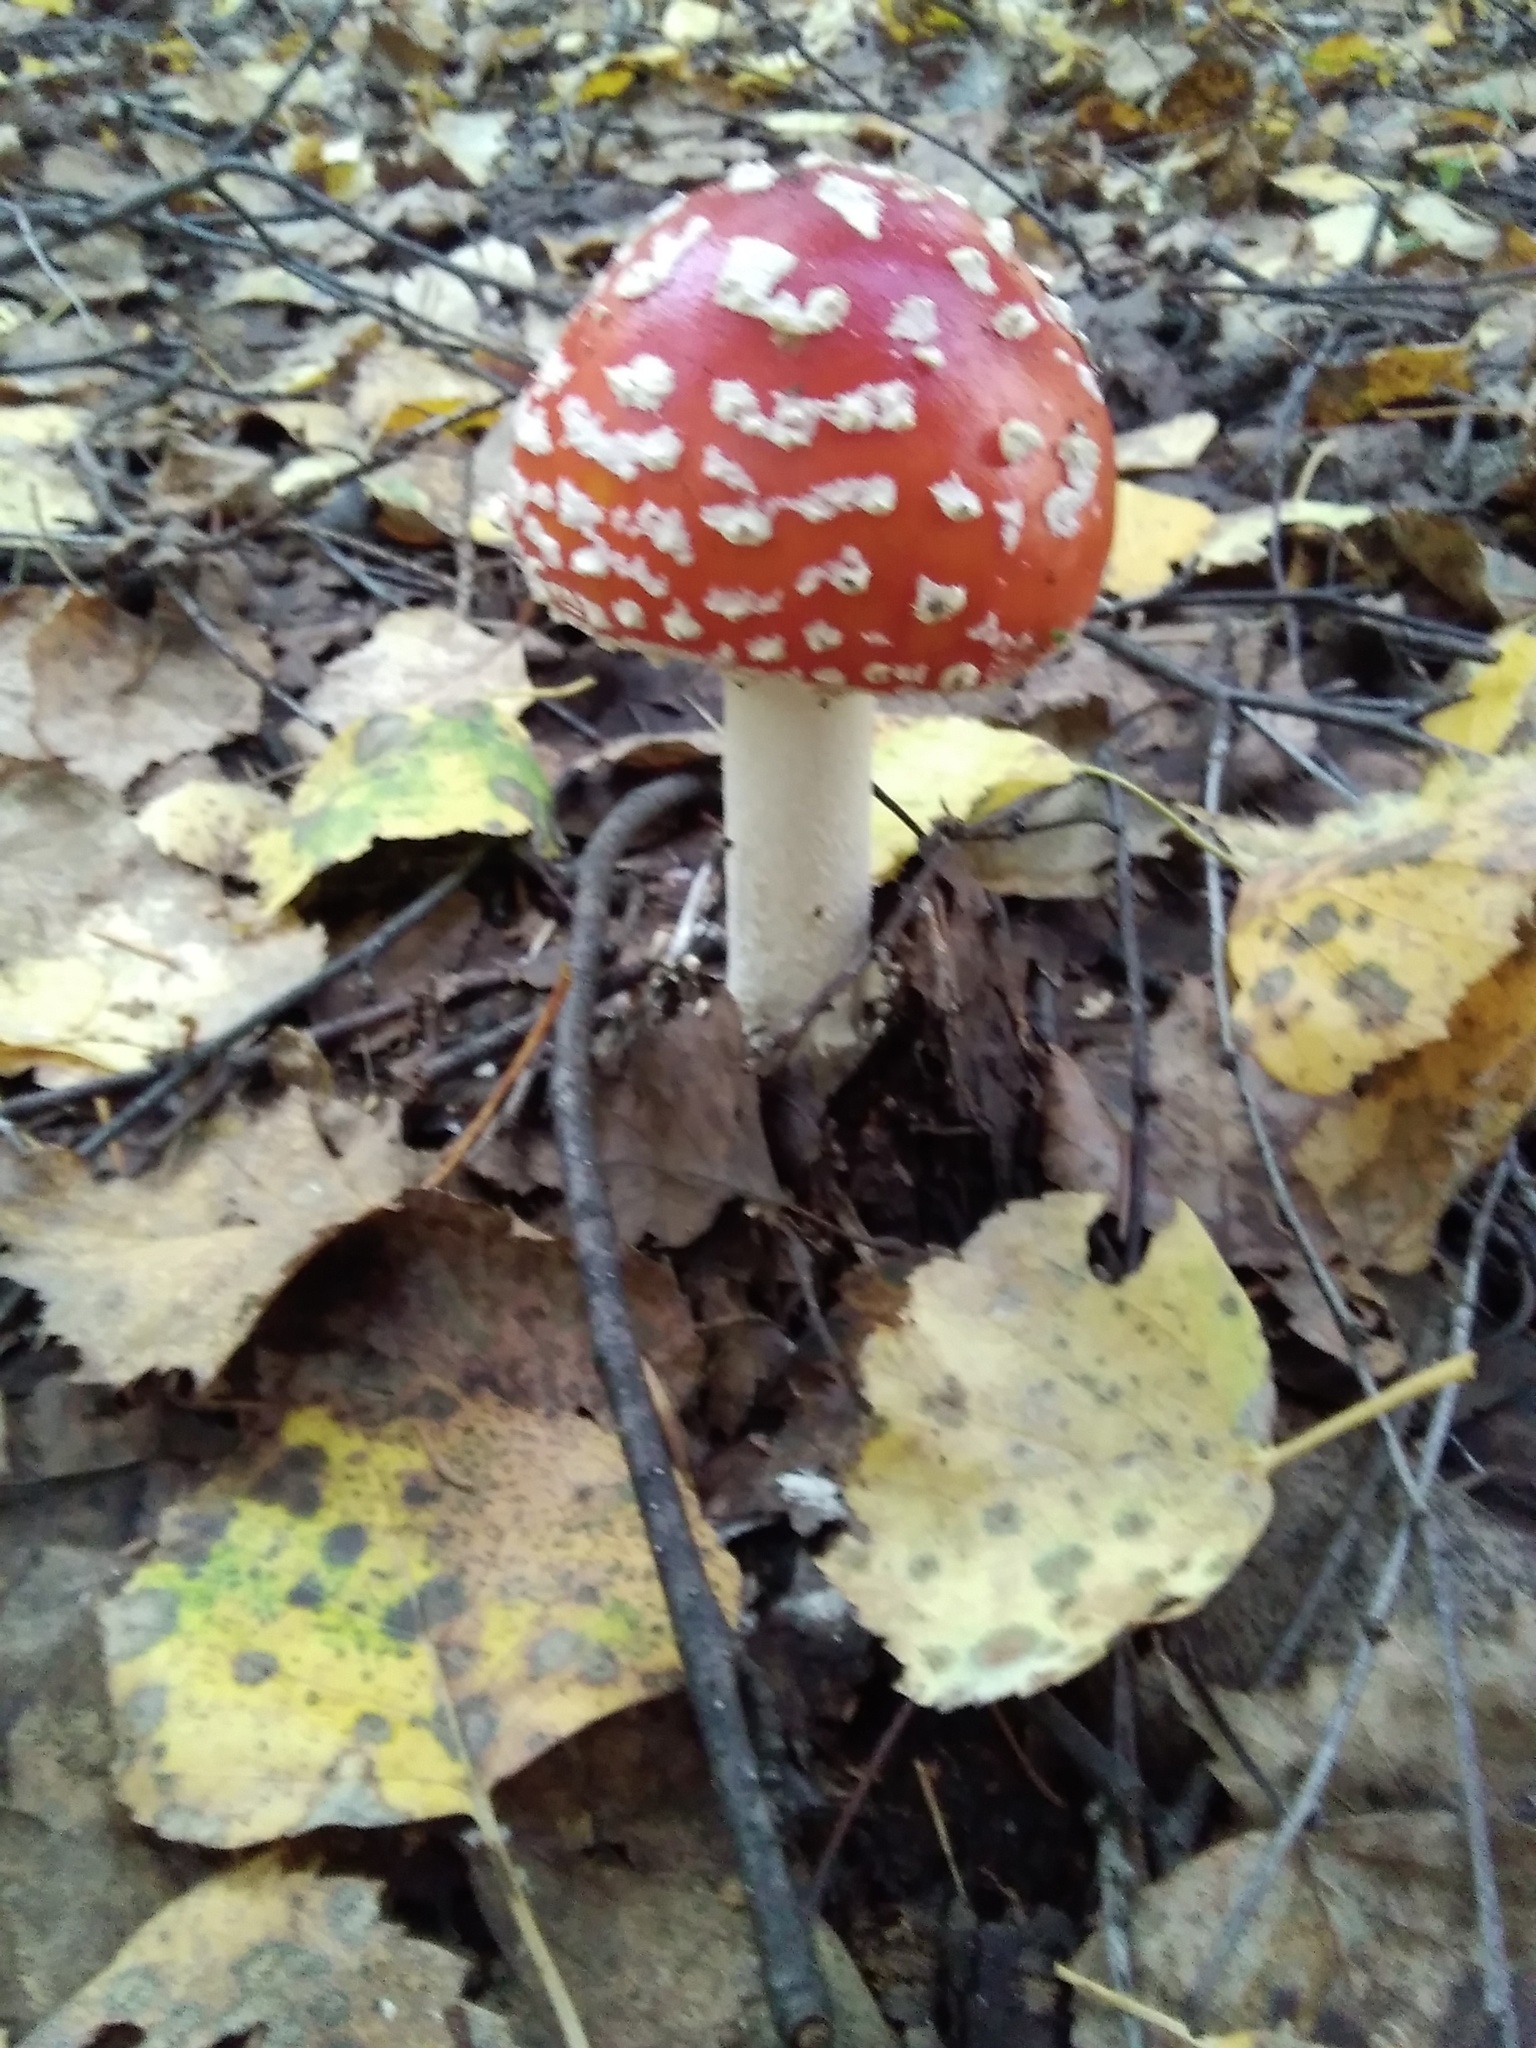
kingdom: Fungi
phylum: Basidiomycota
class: Agaricomycetes
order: Agaricales
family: Amanitaceae
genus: Amanita
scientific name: Amanita muscaria
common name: Fly agaric
